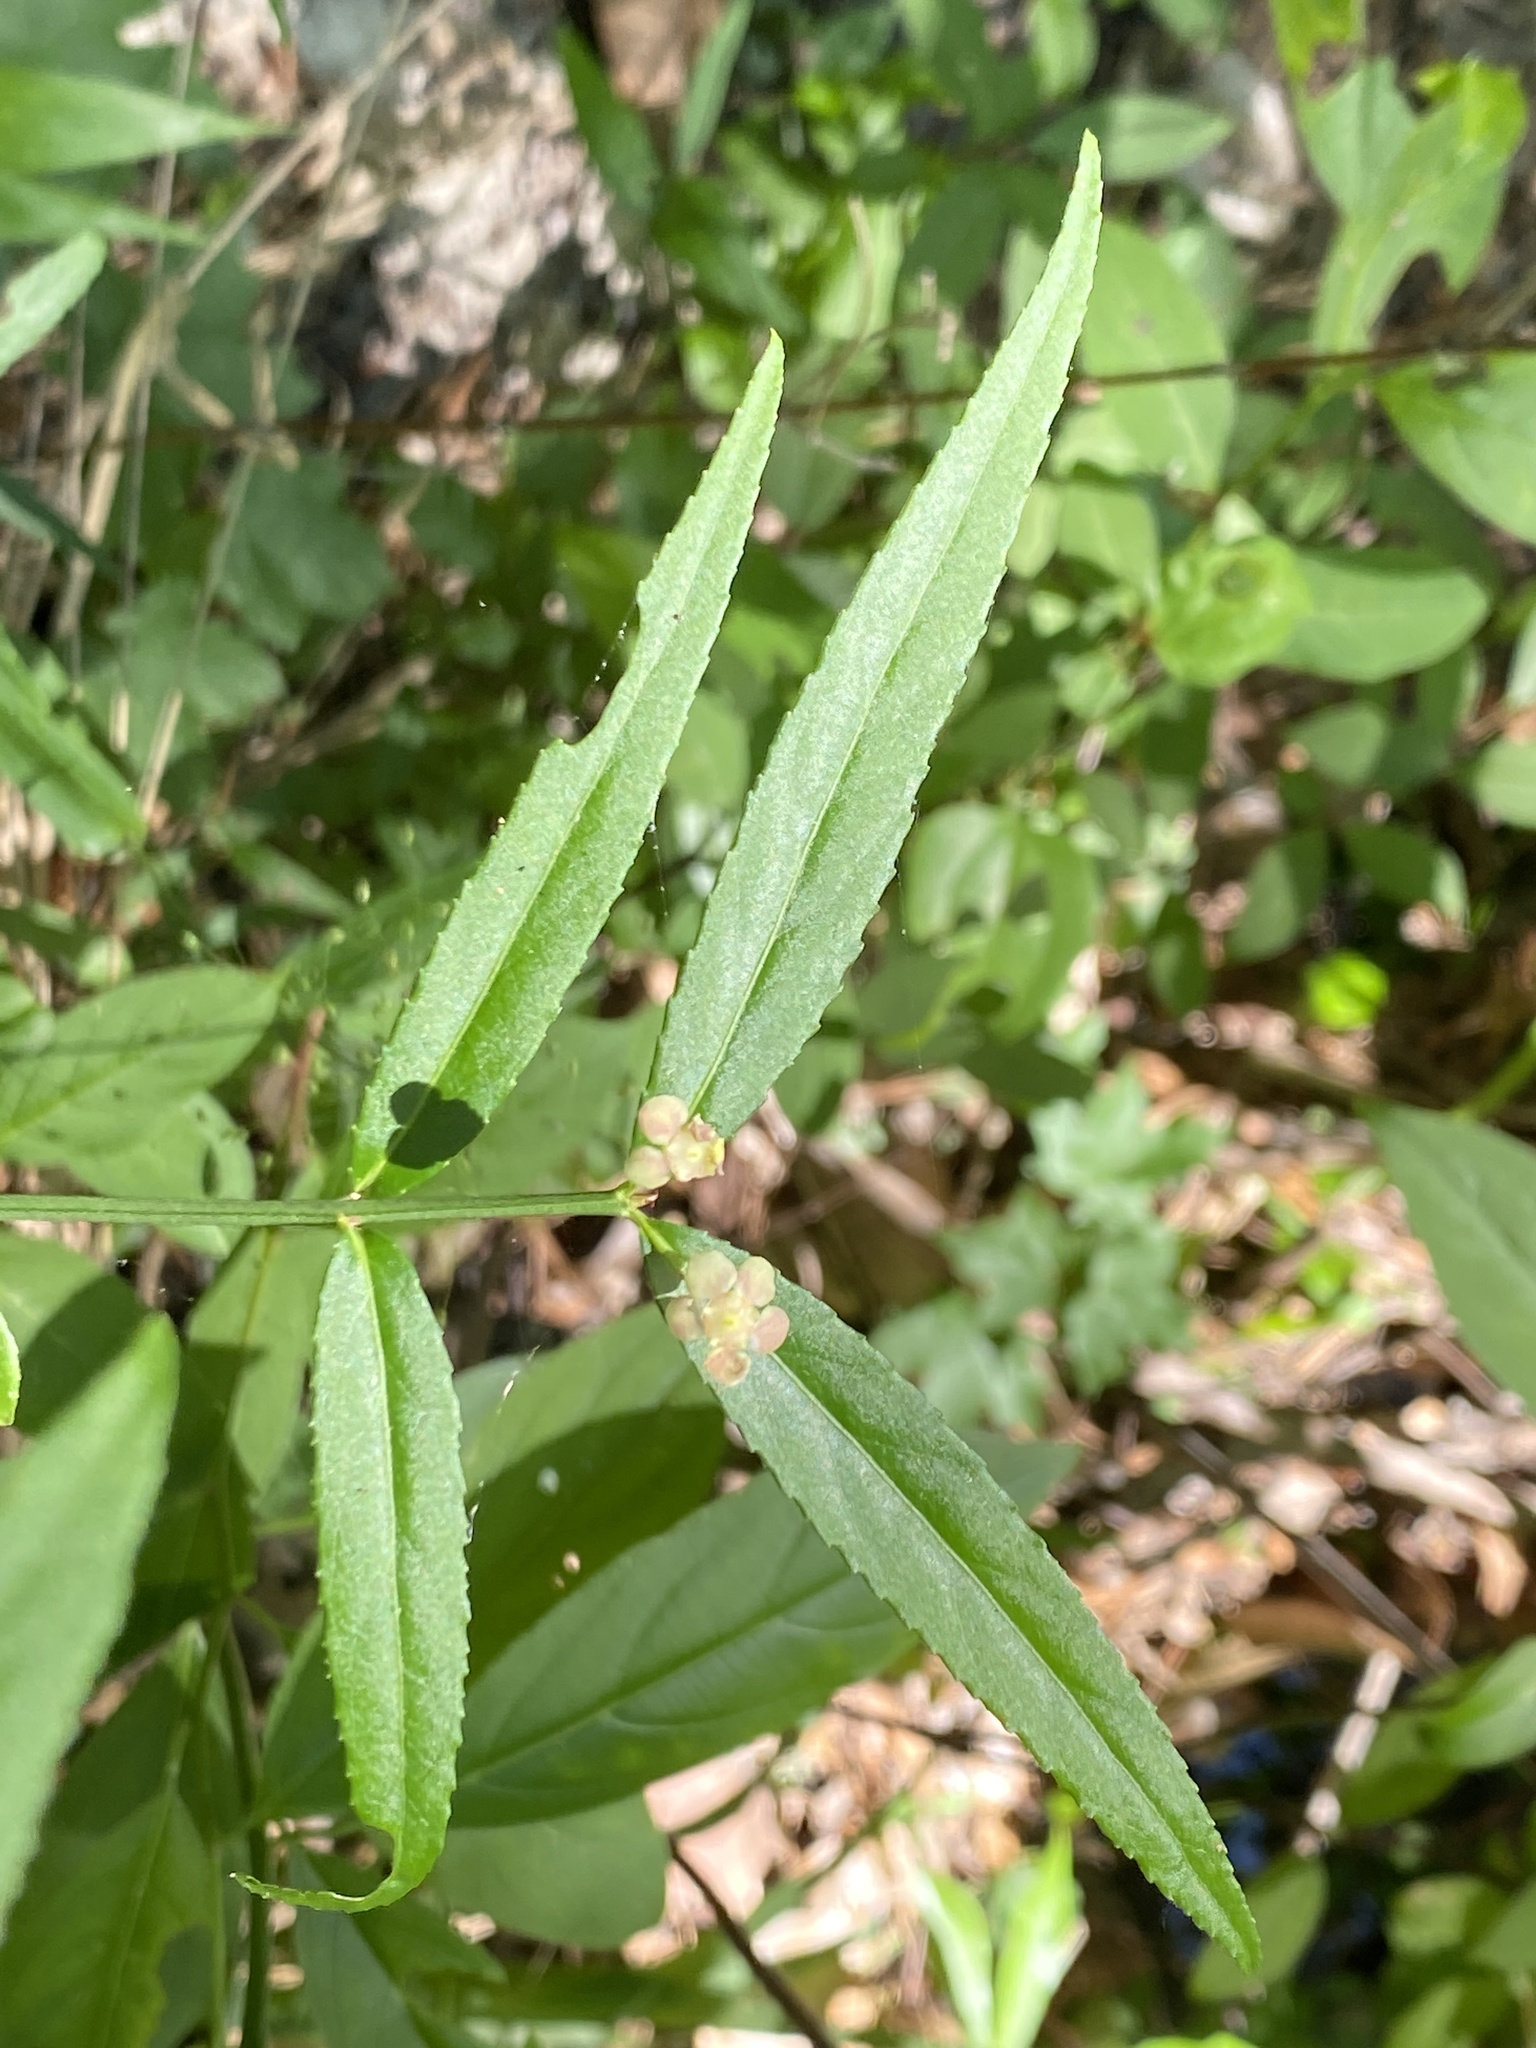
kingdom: Plantae
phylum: Tracheophyta
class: Magnoliopsida
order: Celastrales
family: Celastraceae
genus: Euonymus
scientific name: Euonymus americanus
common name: Bursting-heart
